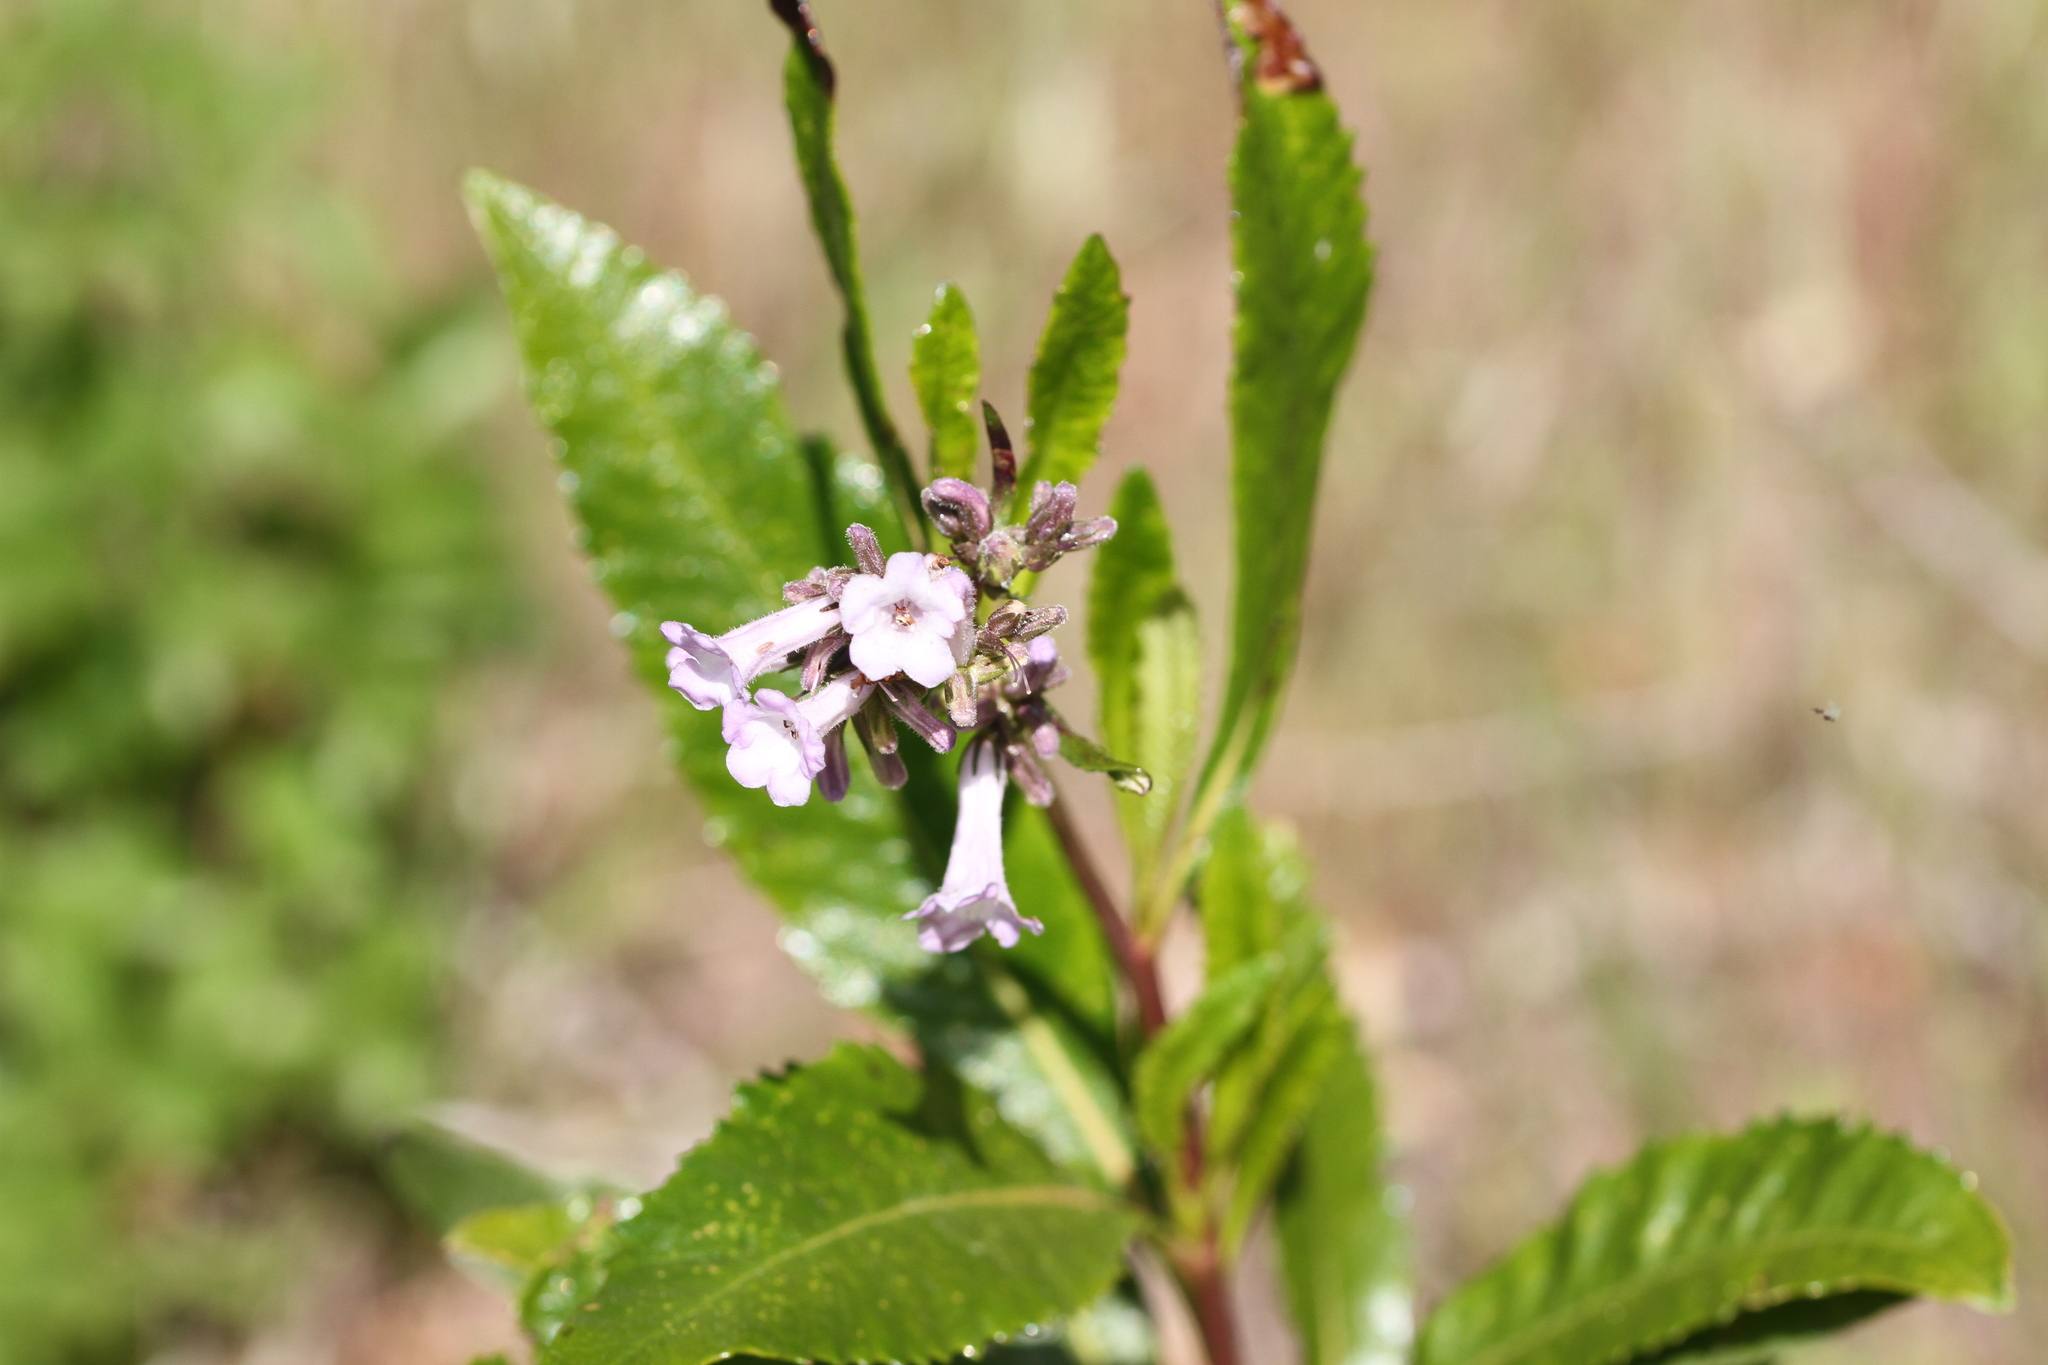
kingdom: Plantae
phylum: Tracheophyta
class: Magnoliopsida
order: Boraginales
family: Namaceae
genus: Eriodictyon
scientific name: Eriodictyon californicum
